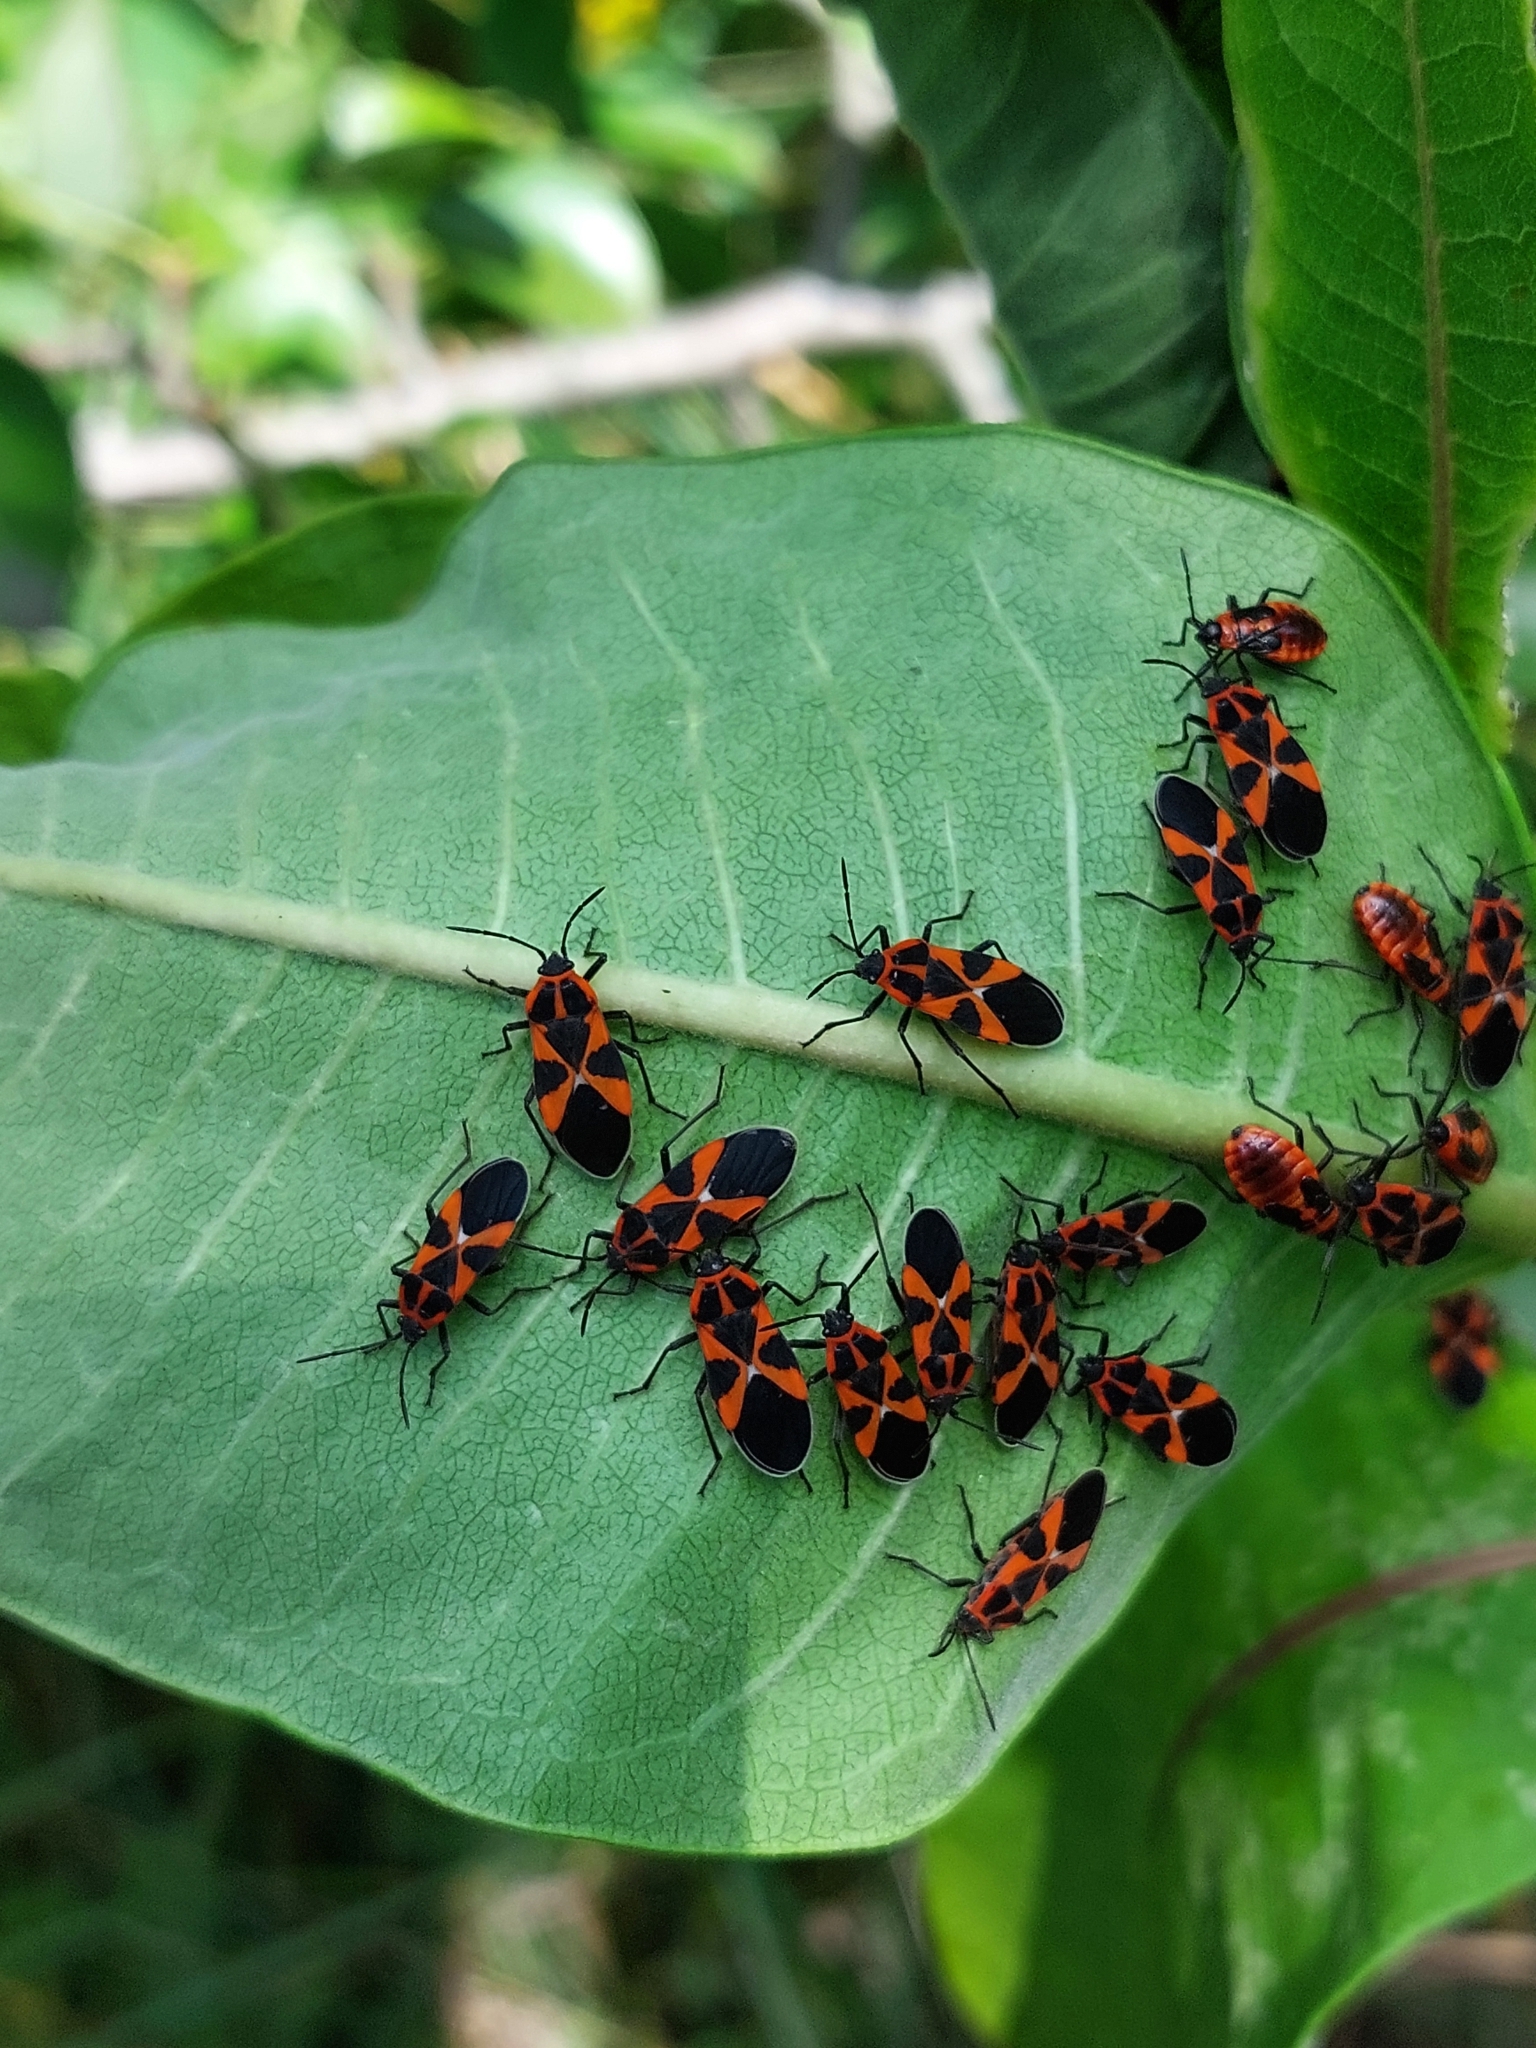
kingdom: Animalia
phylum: Arthropoda
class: Insecta
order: Hemiptera
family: Lygaeidae
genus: Tropidothorax
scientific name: Tropidothorax leucopterus
